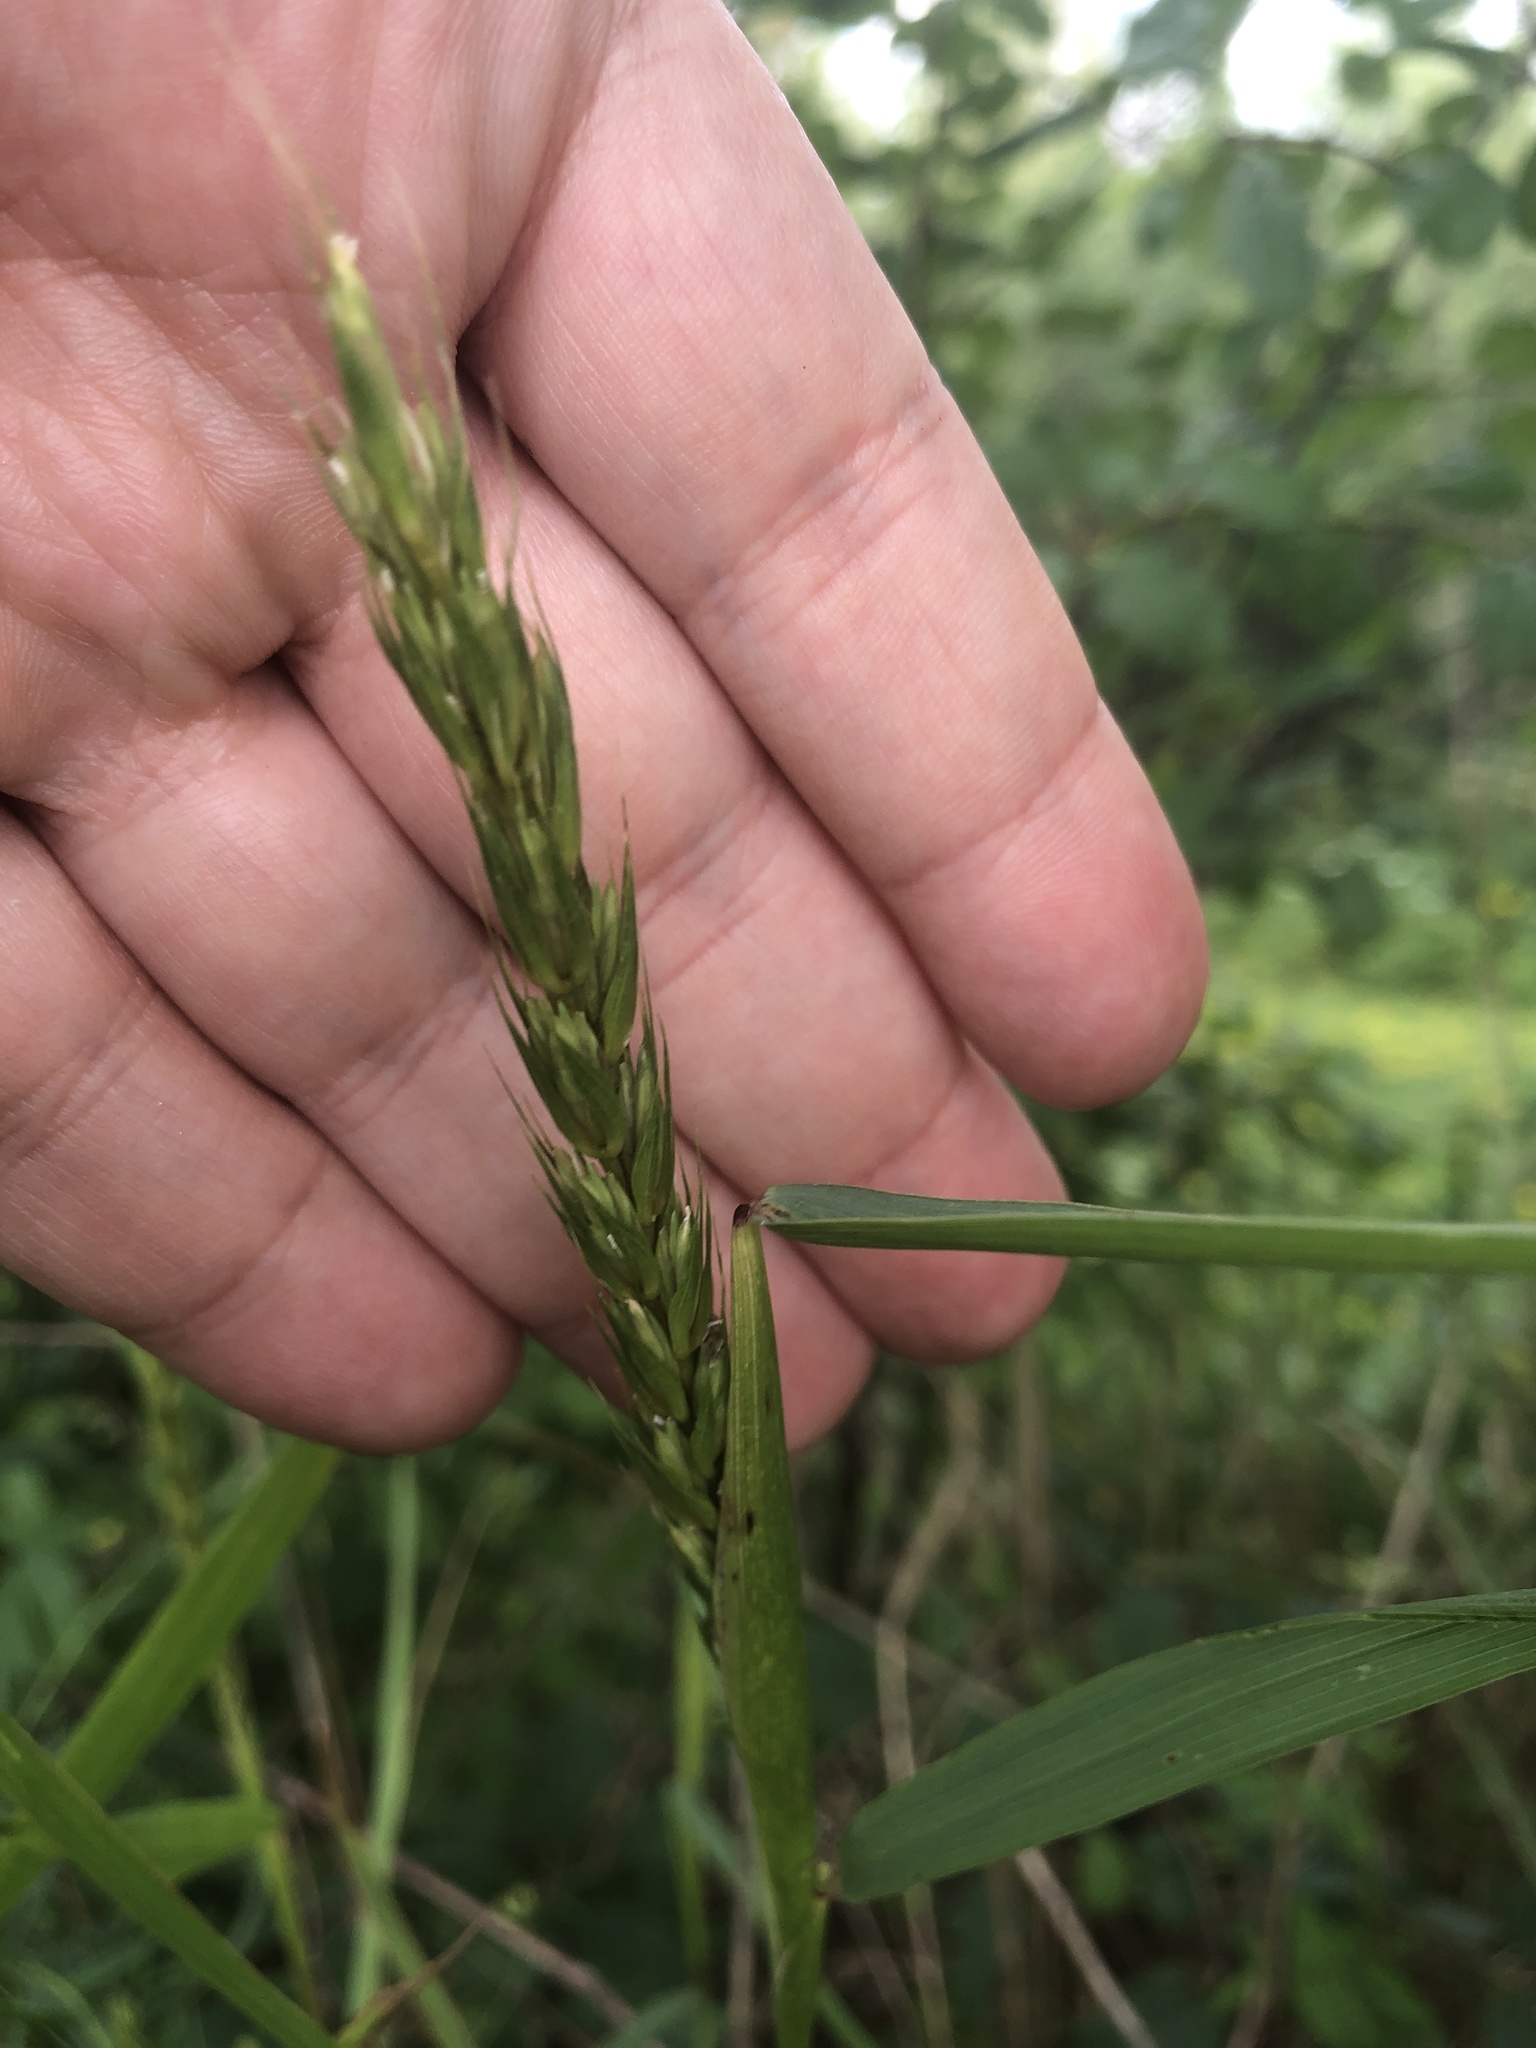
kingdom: Plantae
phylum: Tracheophyta
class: Liliopsida
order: Poales
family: Poaceae
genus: Elymus
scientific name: Elymus virginicus
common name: Common eastern wildrye
